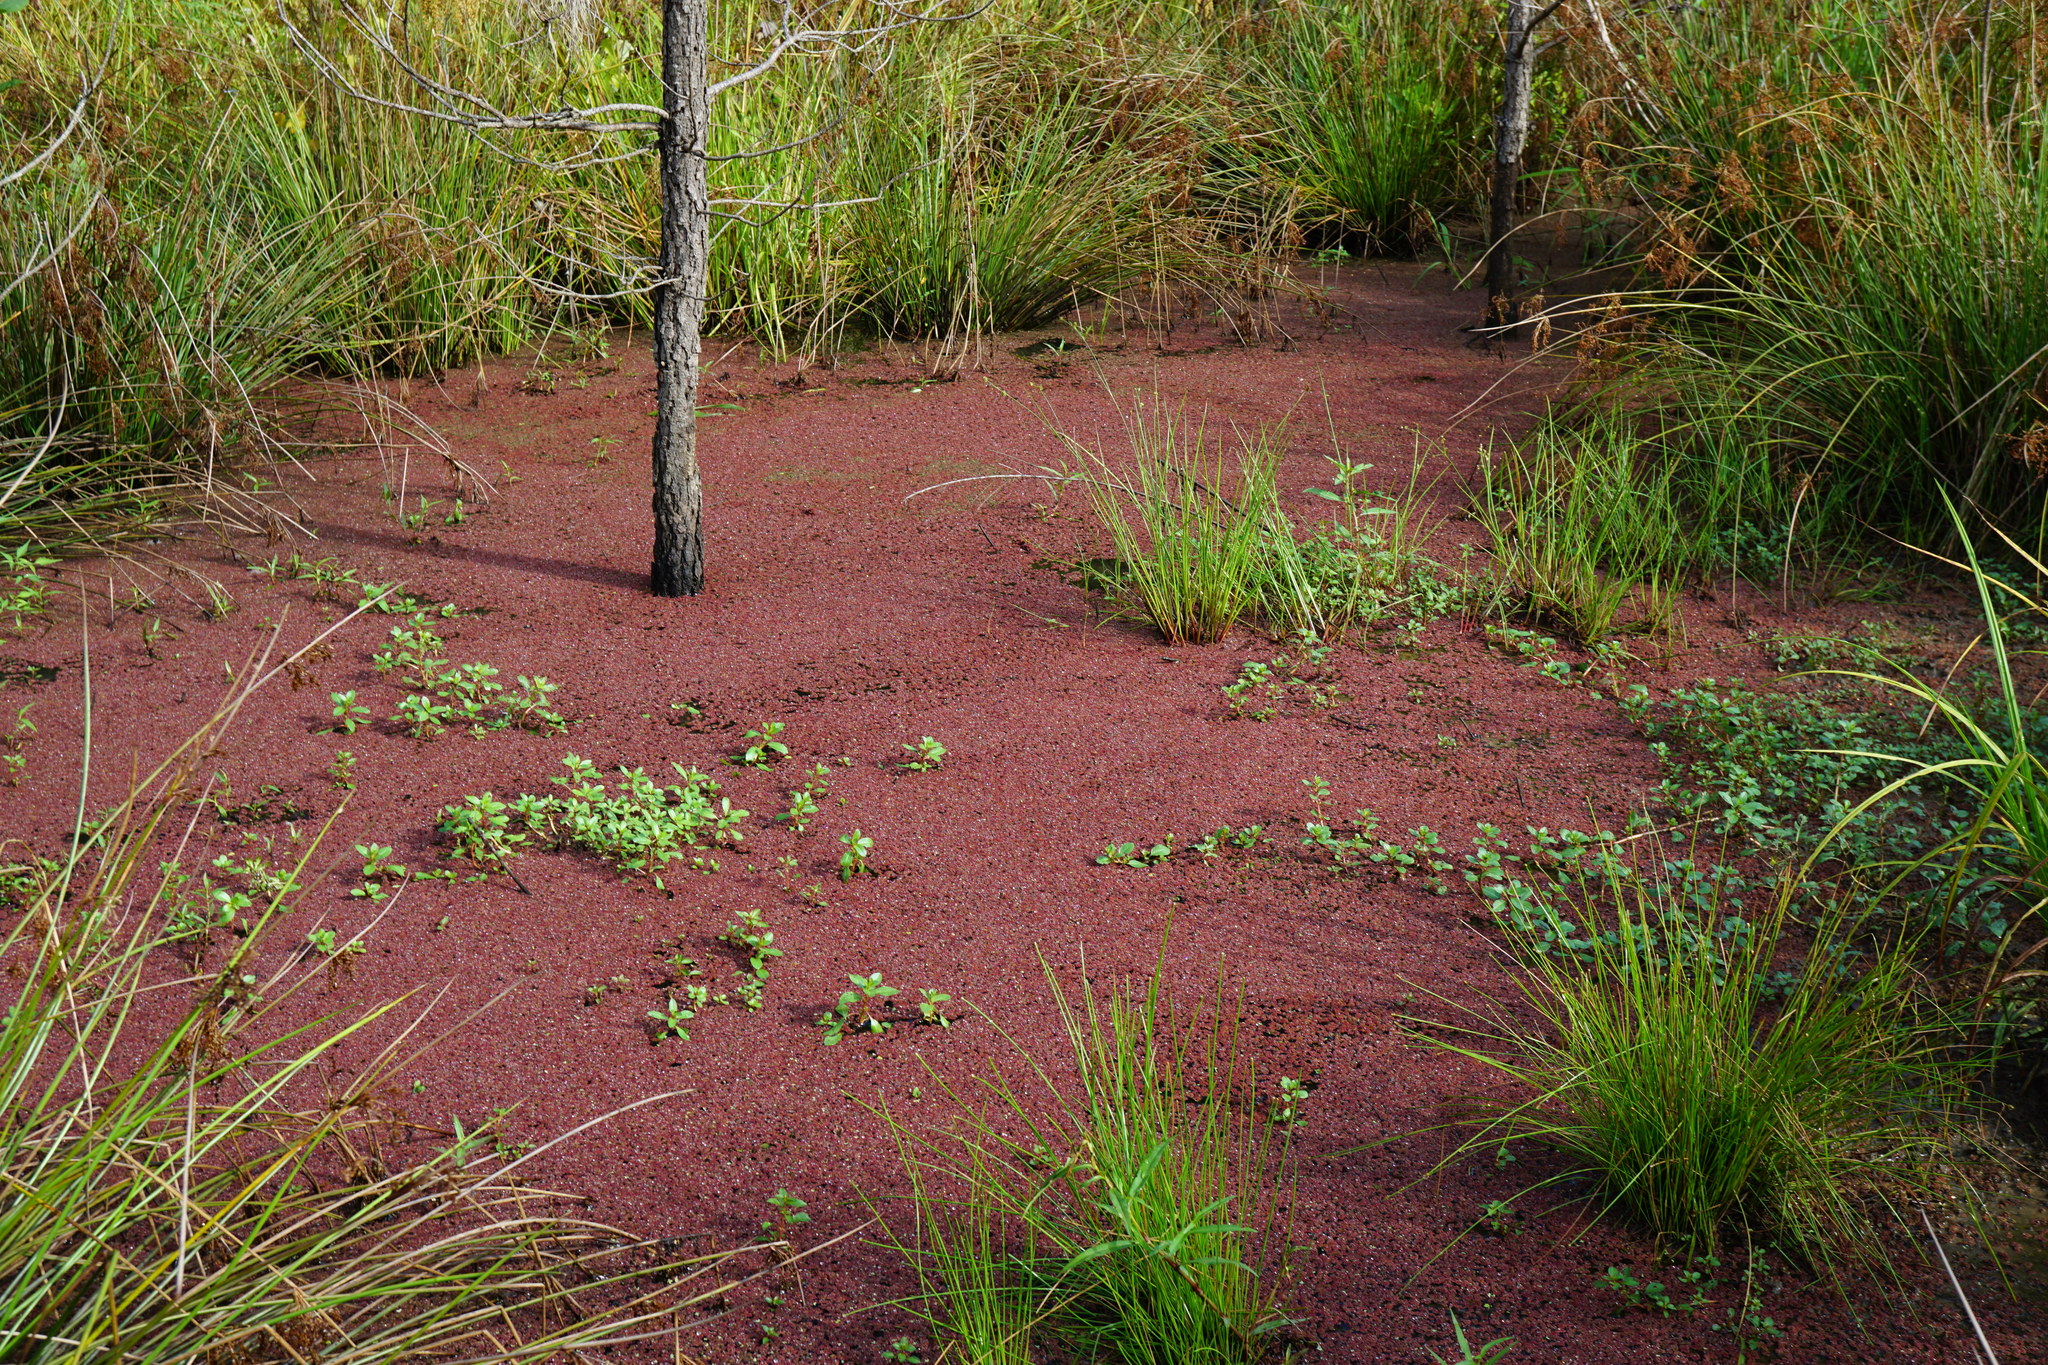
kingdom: Plantae
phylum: Tracheophyta
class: Polypodiopsida
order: Salviniales
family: Salviniaceae
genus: Azolla
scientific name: Azolla caroliniana
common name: Carolina mosquitofern
